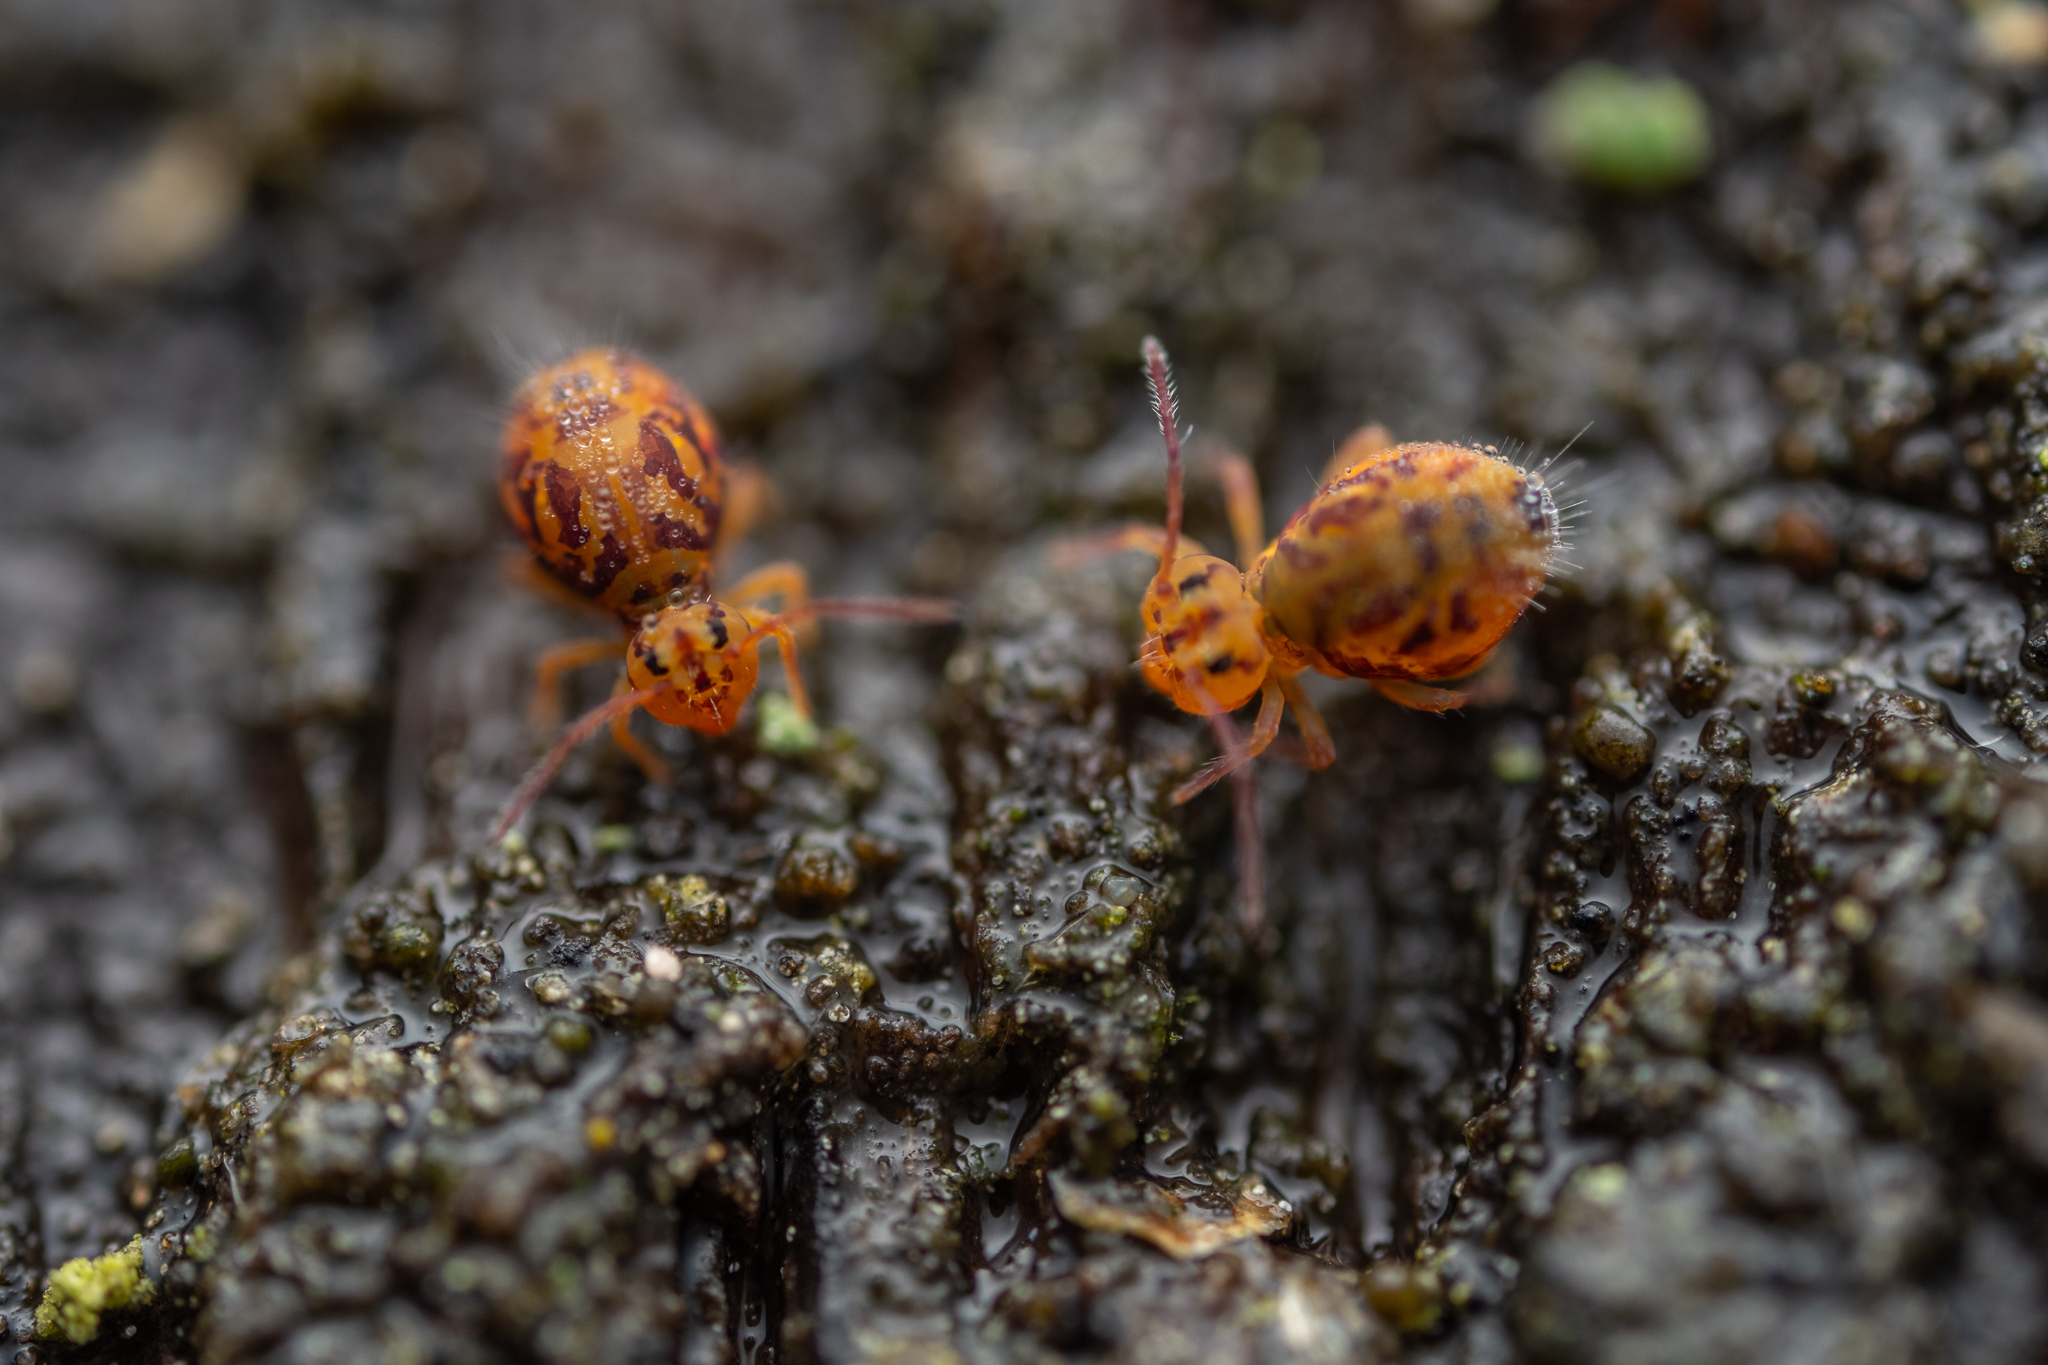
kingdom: Animalia
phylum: Arthropoda
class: Collembola
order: Symphypleona
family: Dicyrtomidae
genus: Dicyrtomina
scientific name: Dicyrtomina ornata
